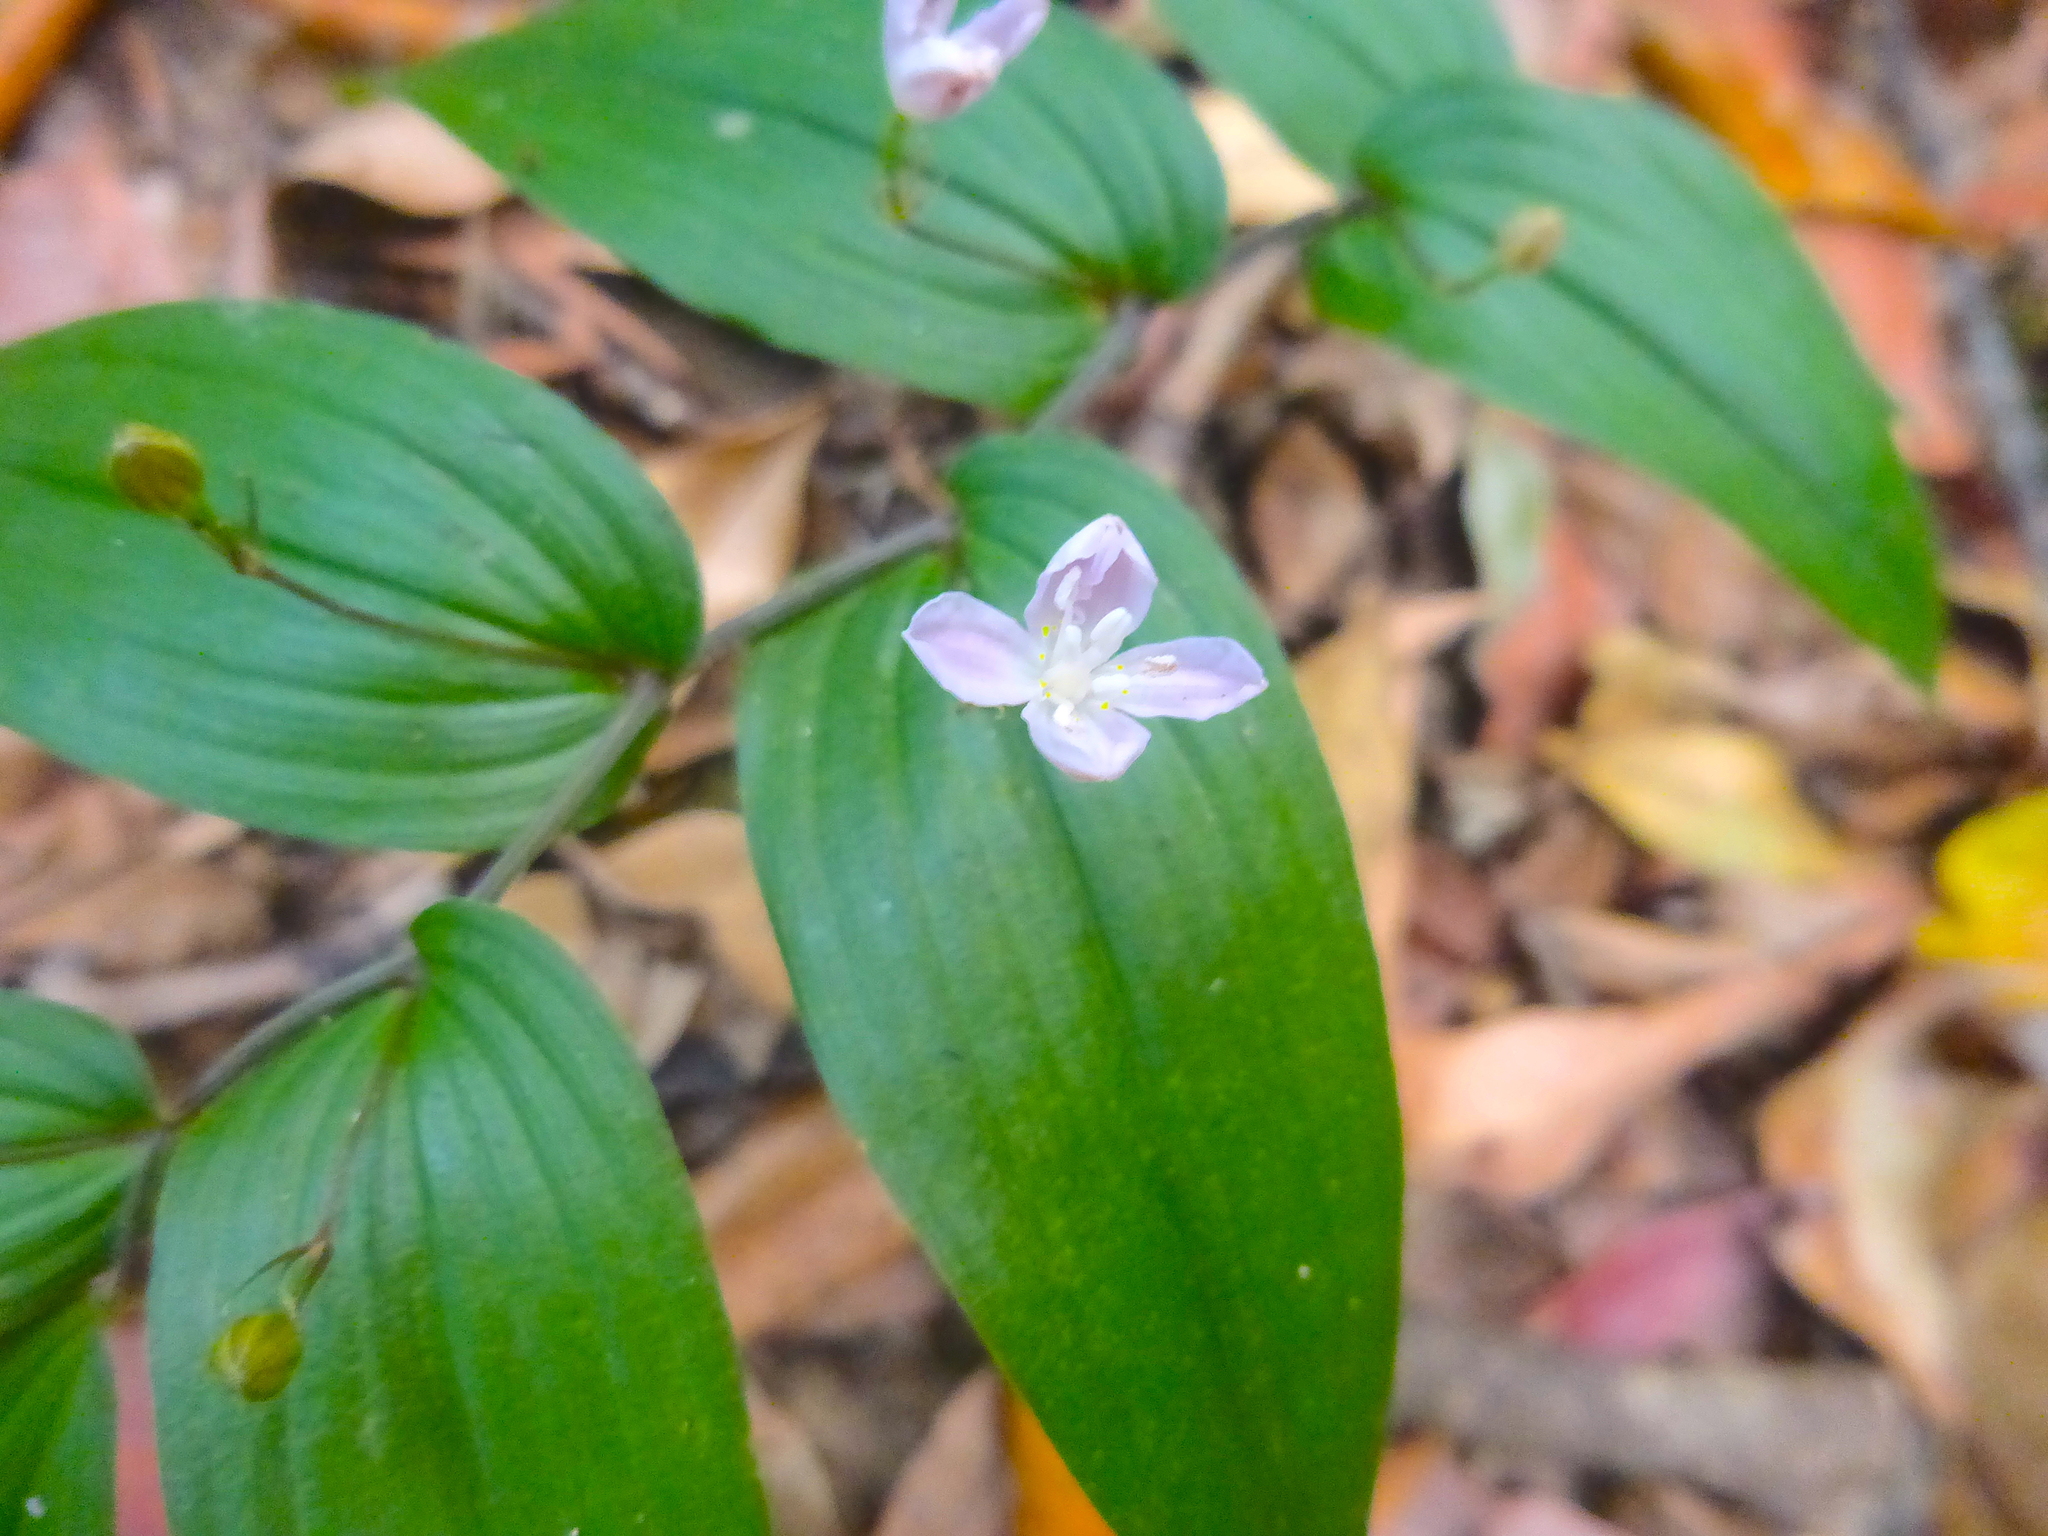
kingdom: Plantae
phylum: Tracheophyta
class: Liliopsida
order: Liliales
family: Colchicaceae
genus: Tripladenia
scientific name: Tripladenia cunninghamii
